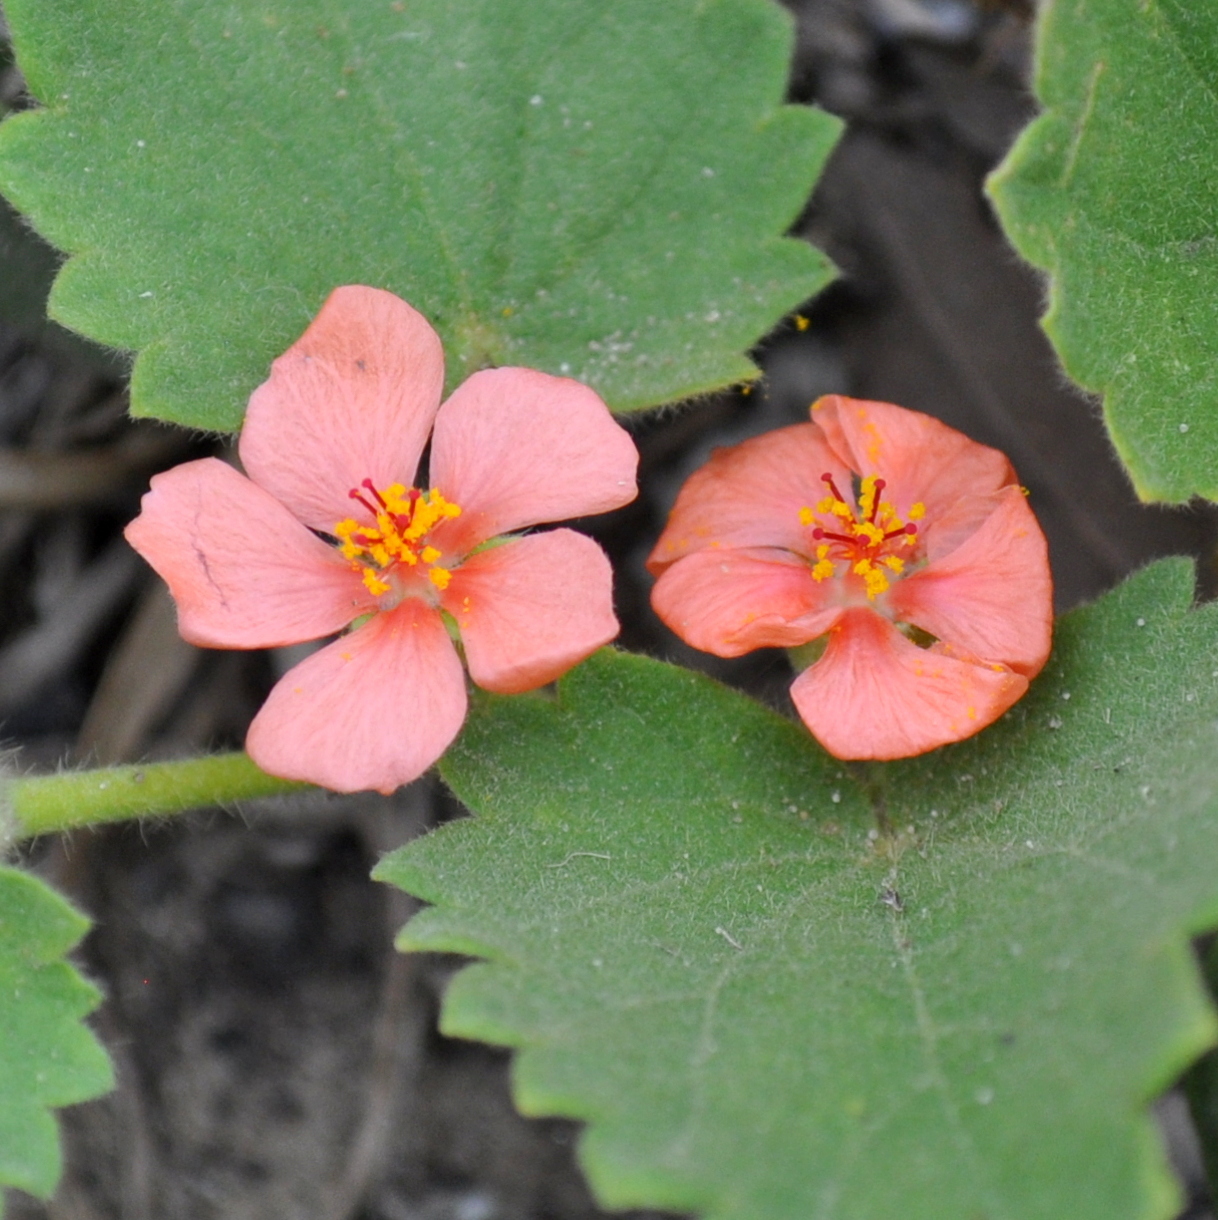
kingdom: Plantae
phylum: Tracheophyta
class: Magnoliopsida
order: Malvales
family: Malvaceae
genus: Krapovickasia
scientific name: Krapovickasia flavescens
